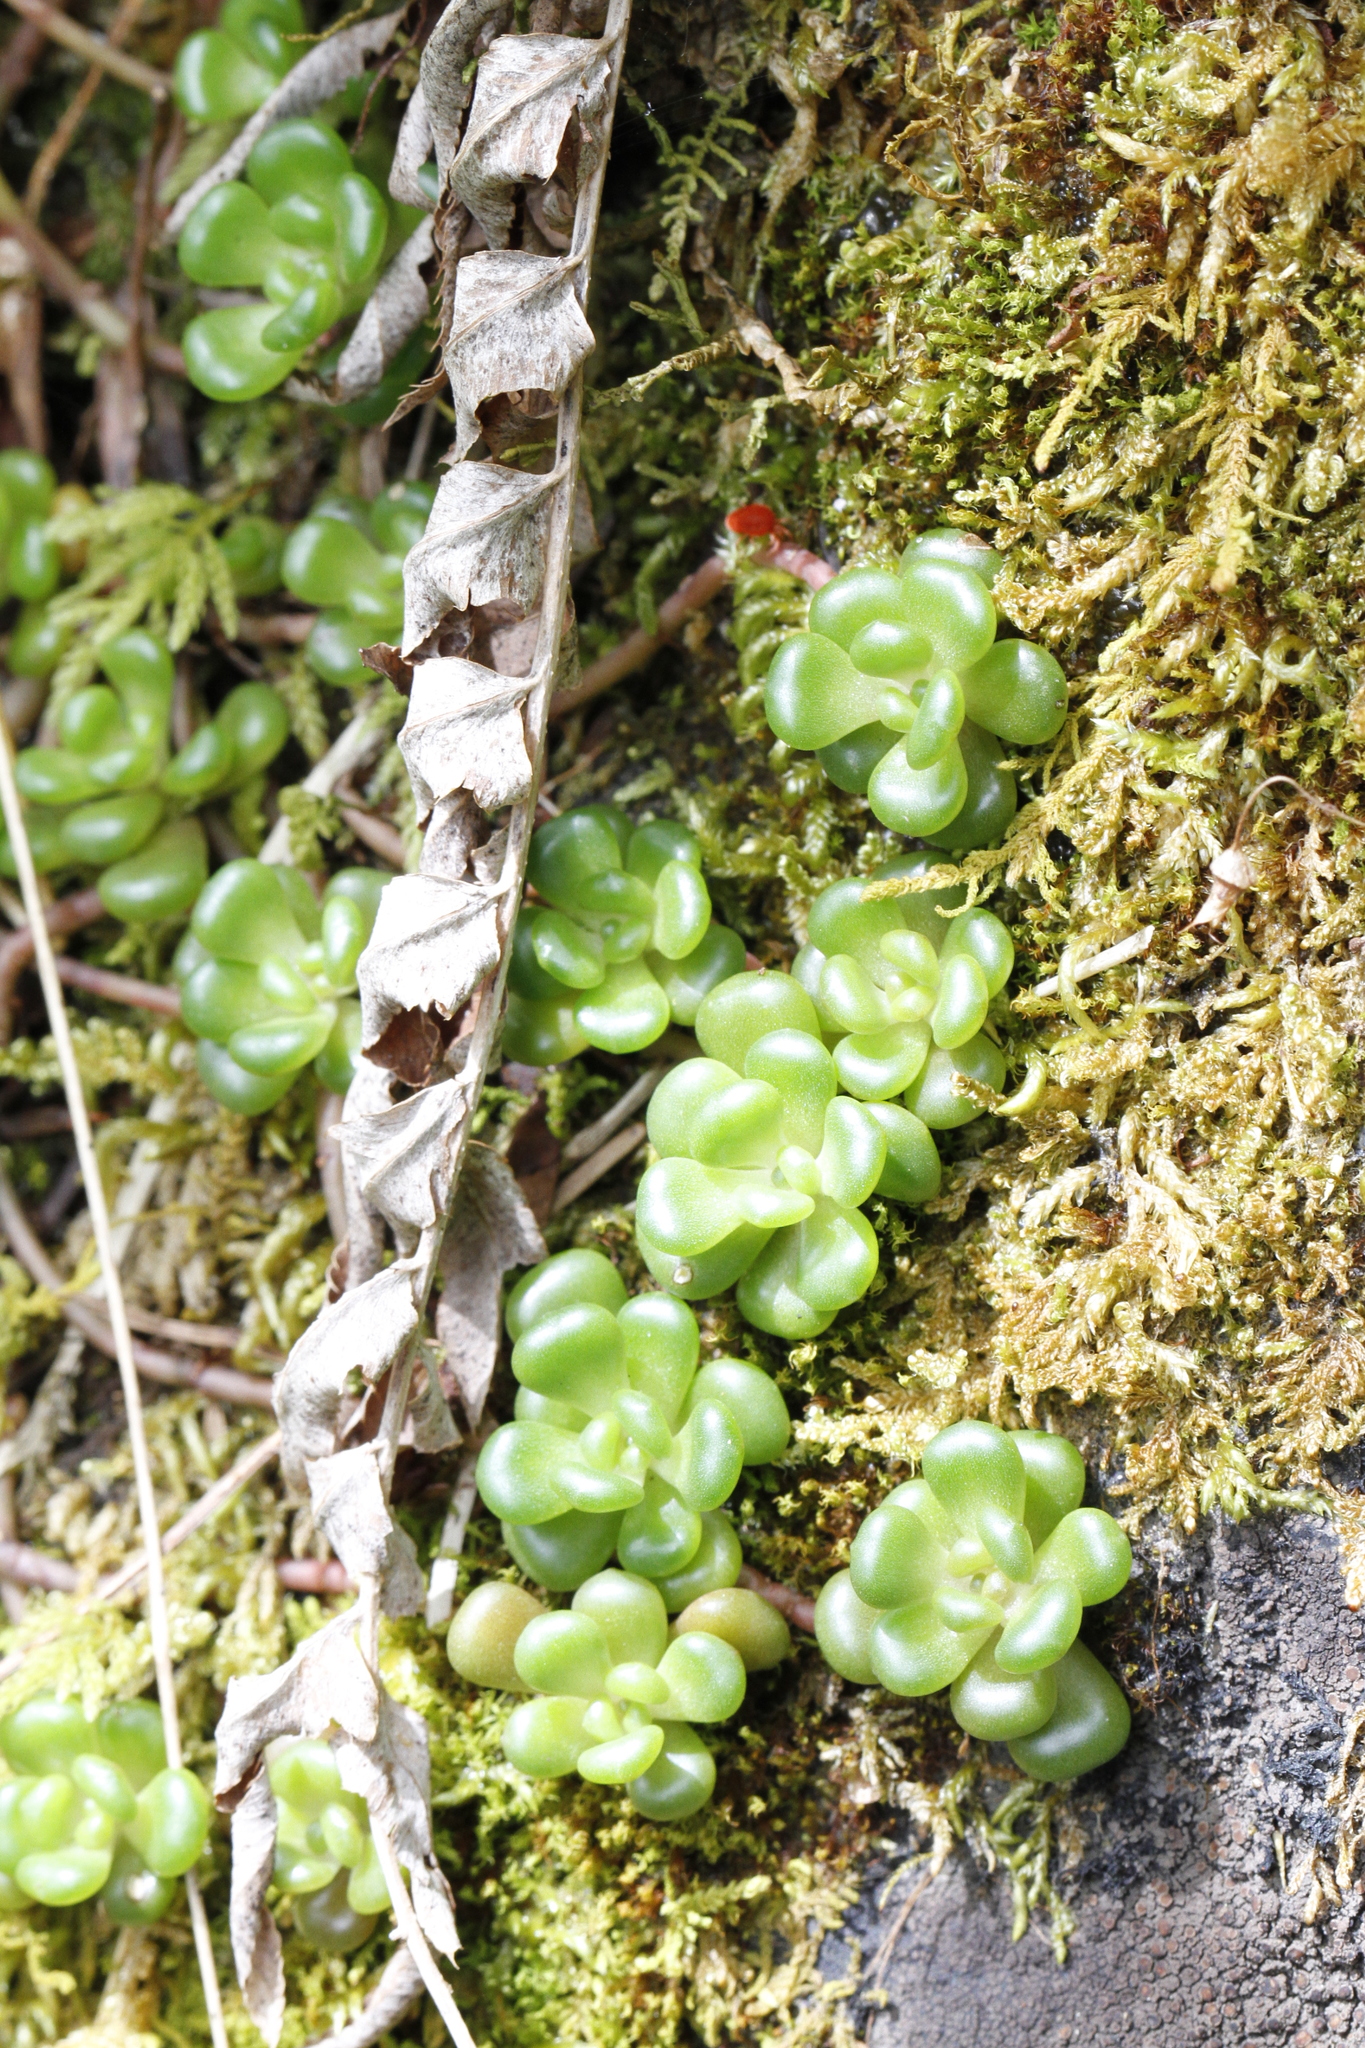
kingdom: Plantae
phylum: Tracheophyta
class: Magnoliopsida
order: Saxifragales
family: Crassulaceae
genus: Sedum
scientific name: Sedum oreganum
